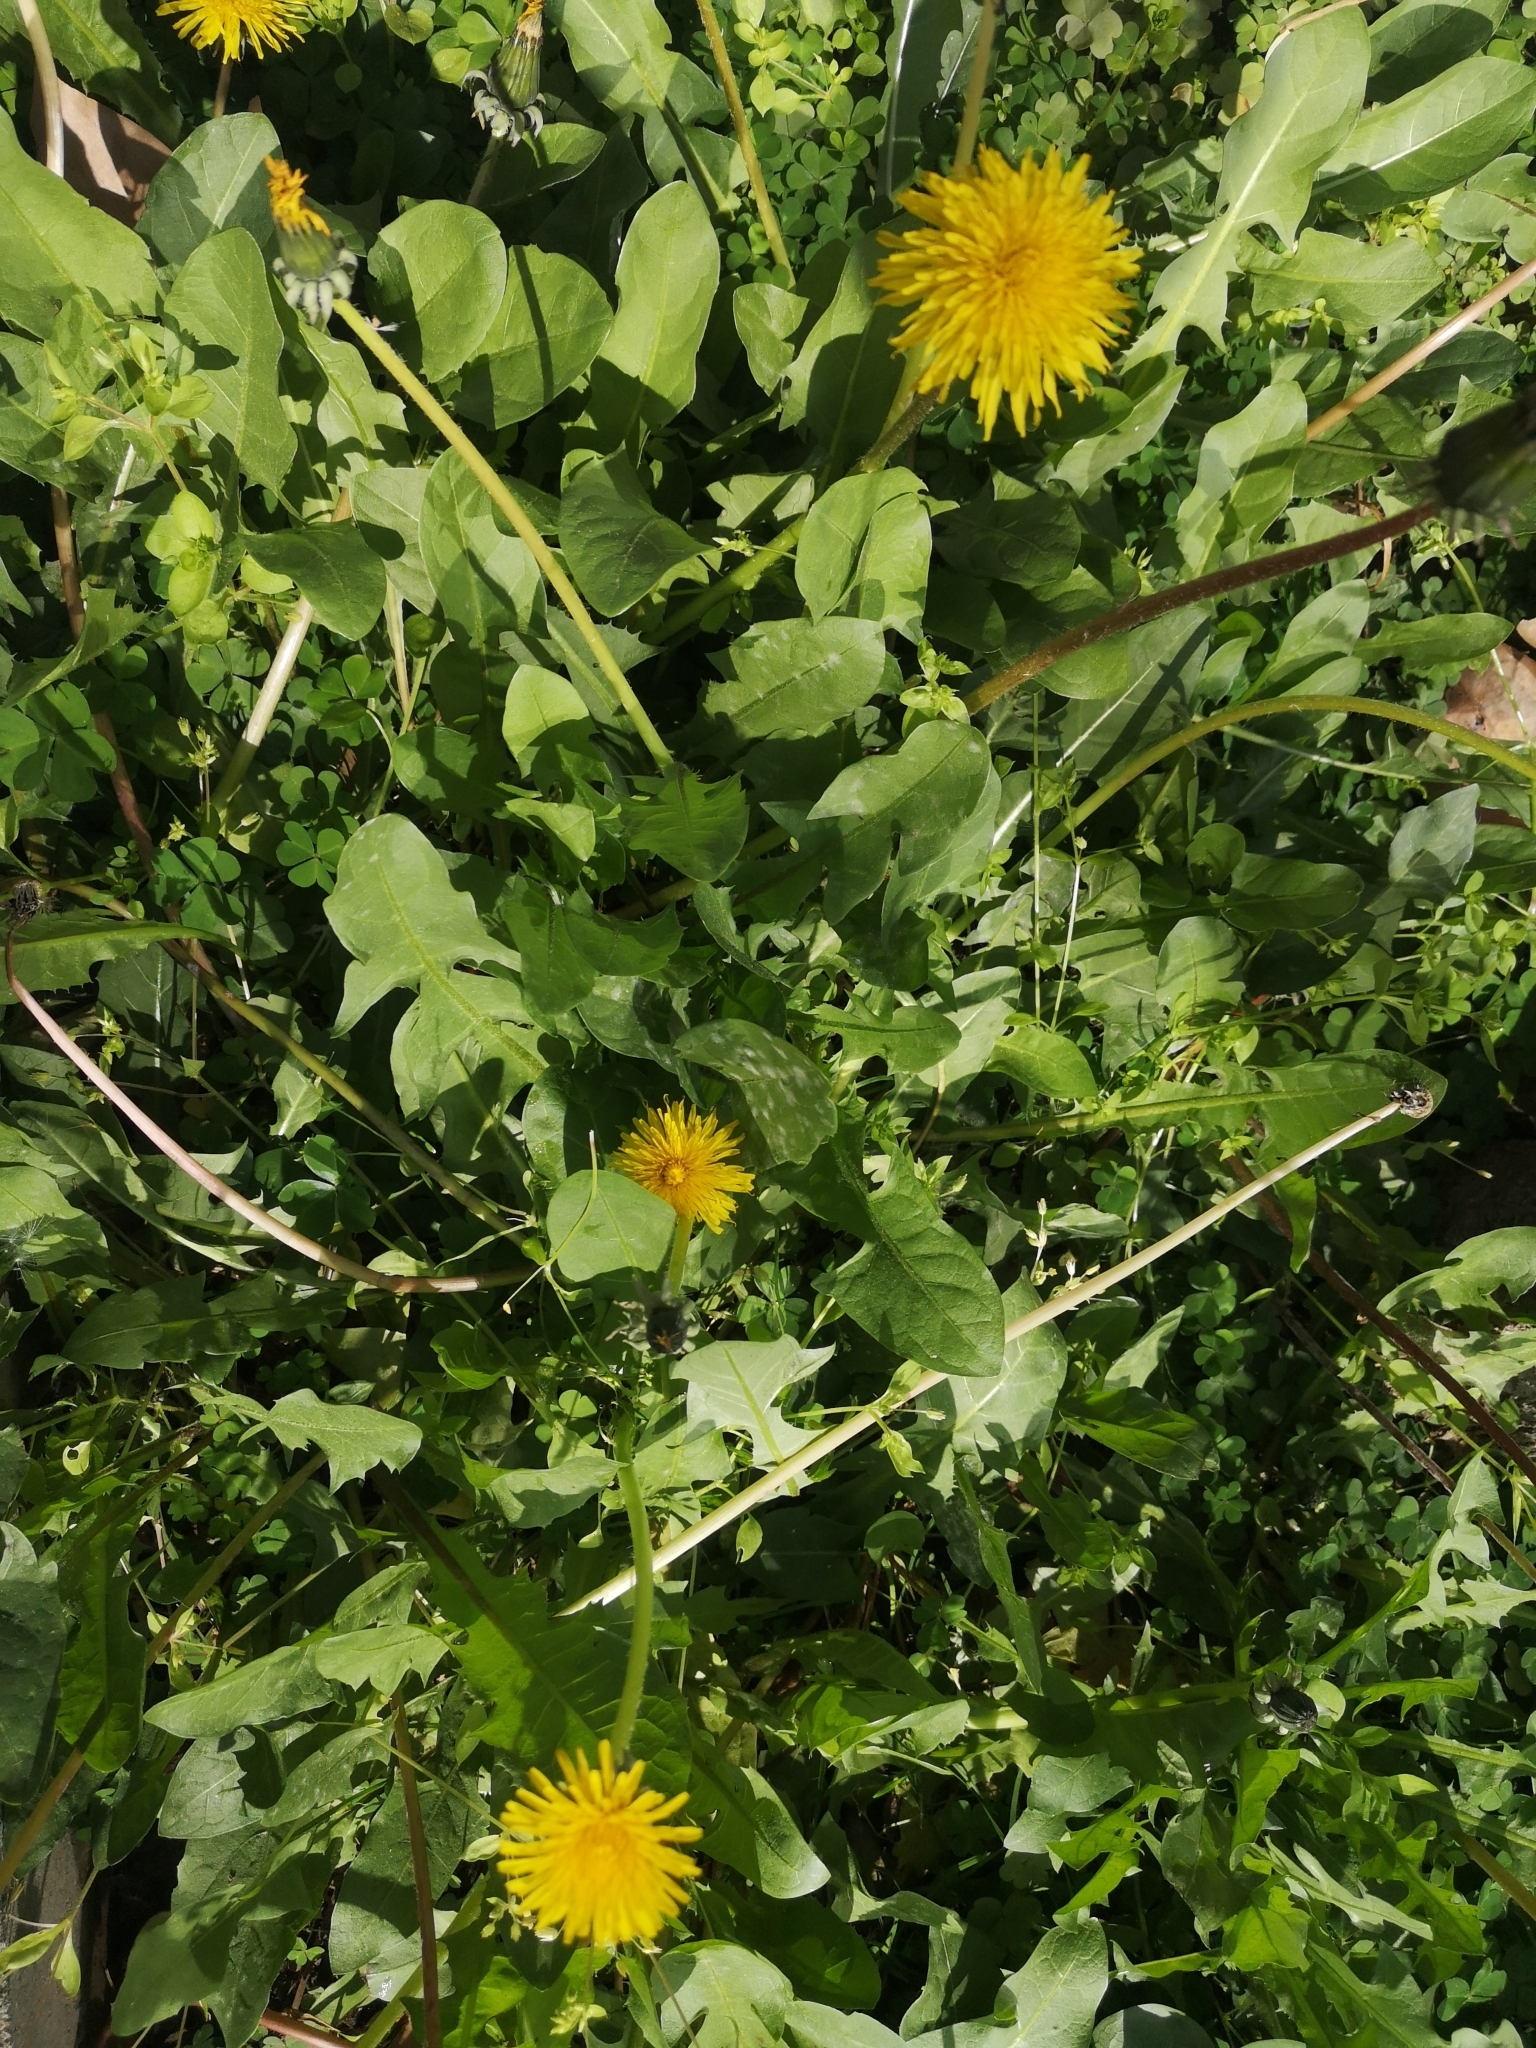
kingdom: Plantae
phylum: Tracheophyta
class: Magnoliopsida
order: Asterales
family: Asteraceae
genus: Taraxacum
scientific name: Taraxacum officinale
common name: Common dandelion
